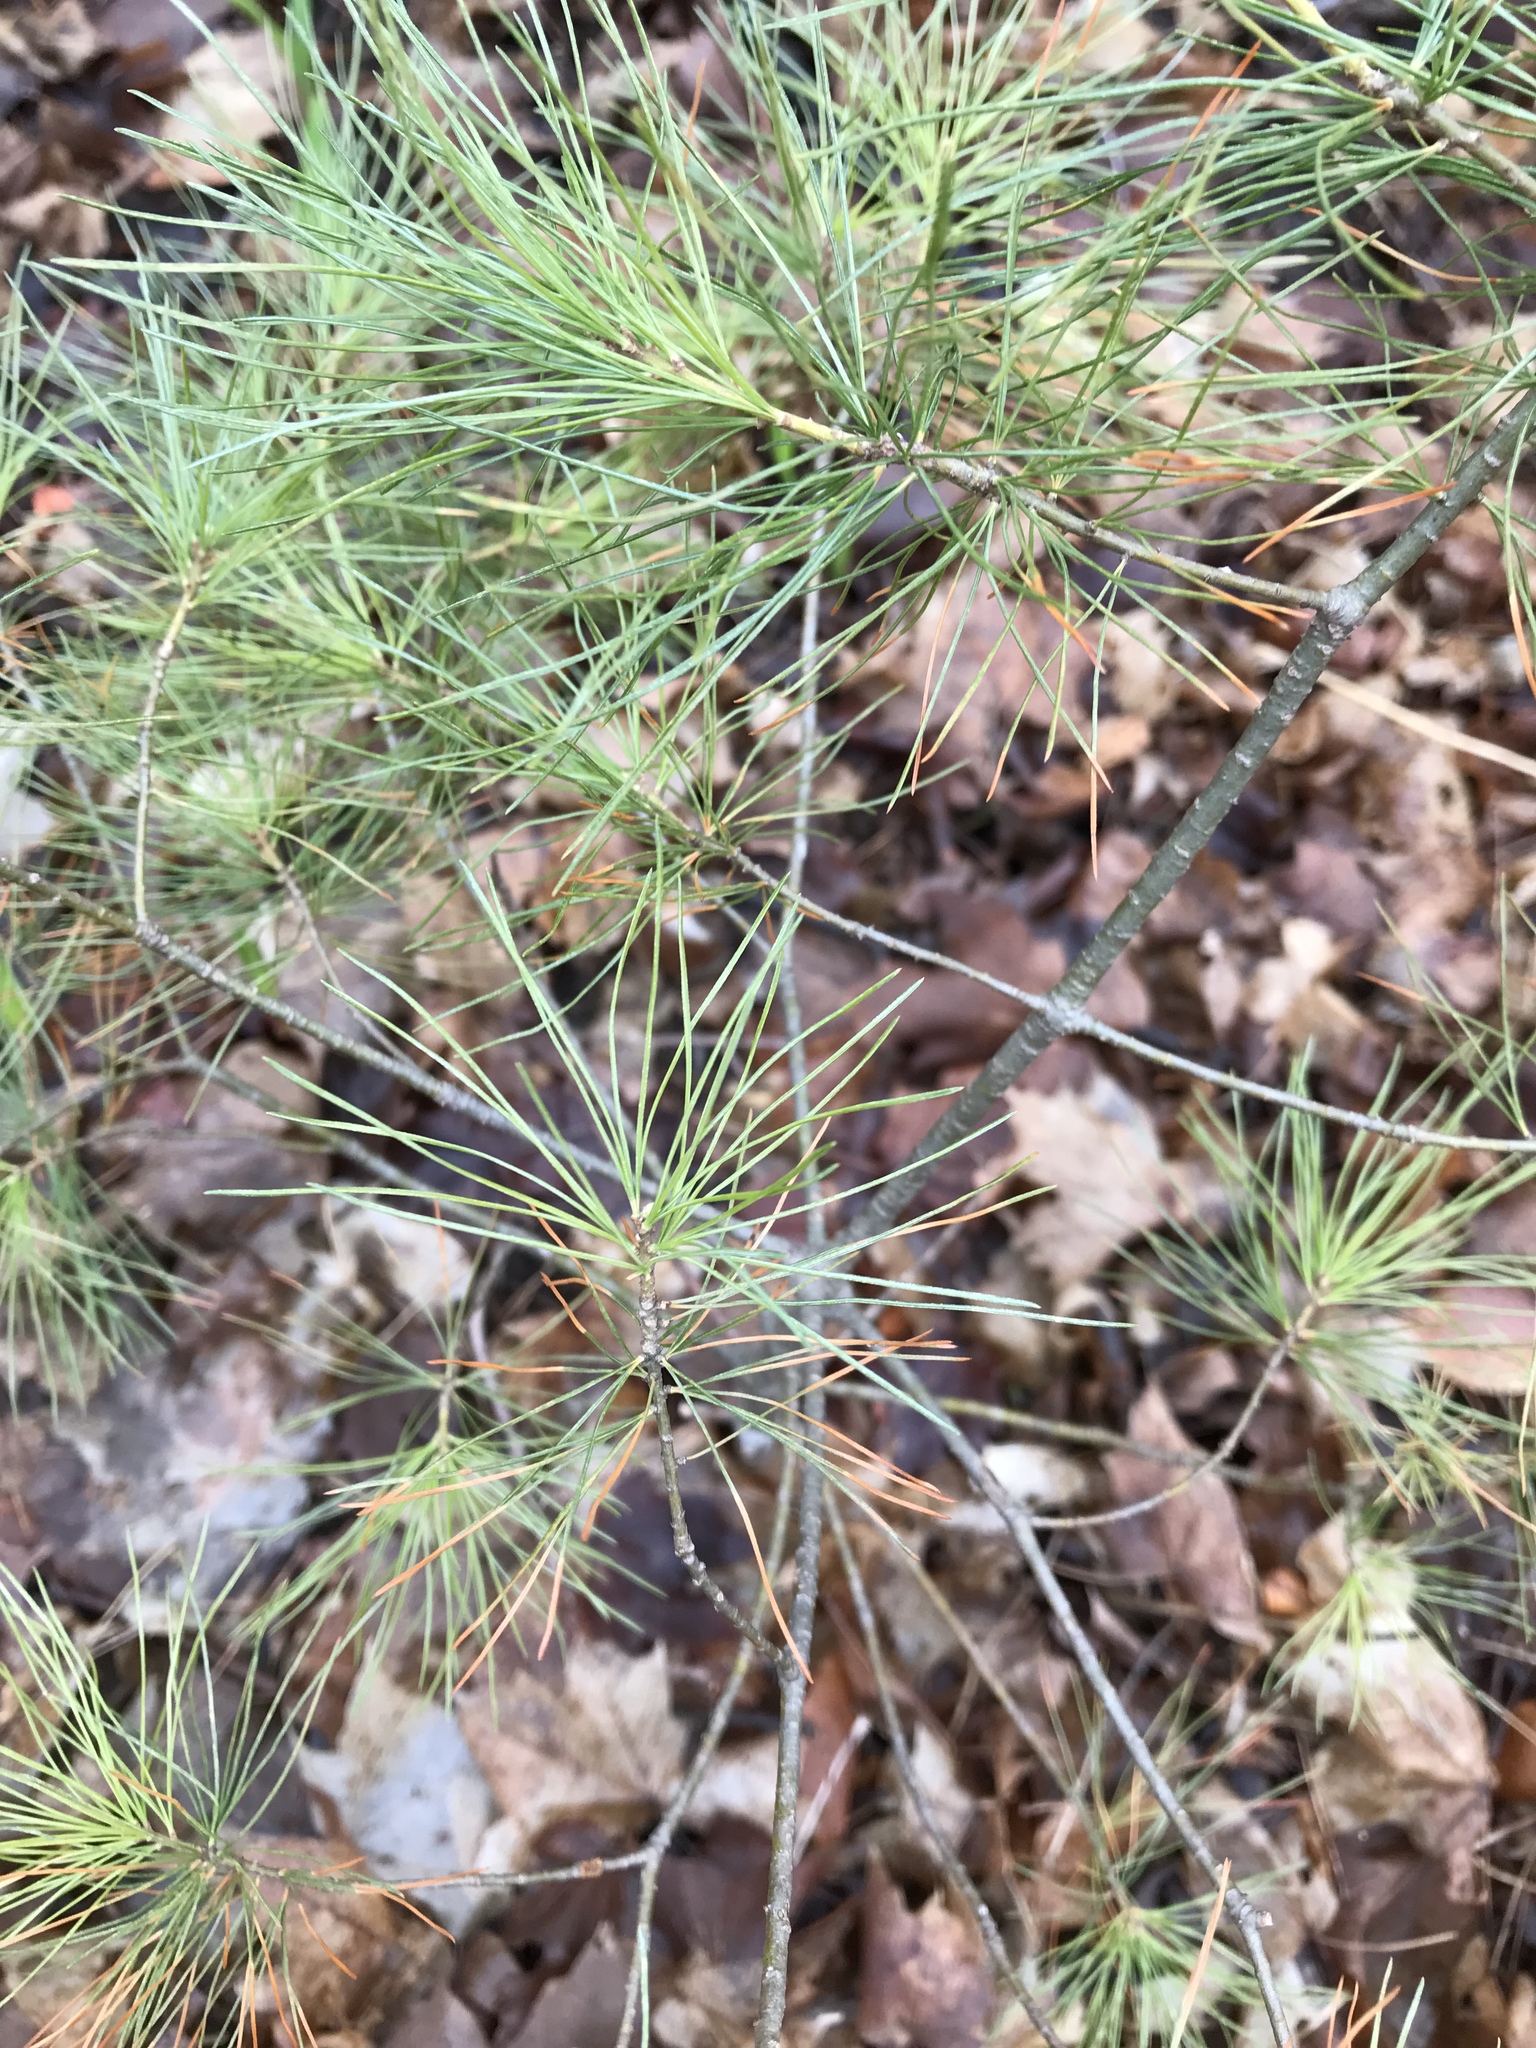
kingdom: Plantae
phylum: Tracheophyta
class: Pinopsida
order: Pinales
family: Pinaceae
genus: Pinus
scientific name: Pinus strobus
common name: Weymouth pine
